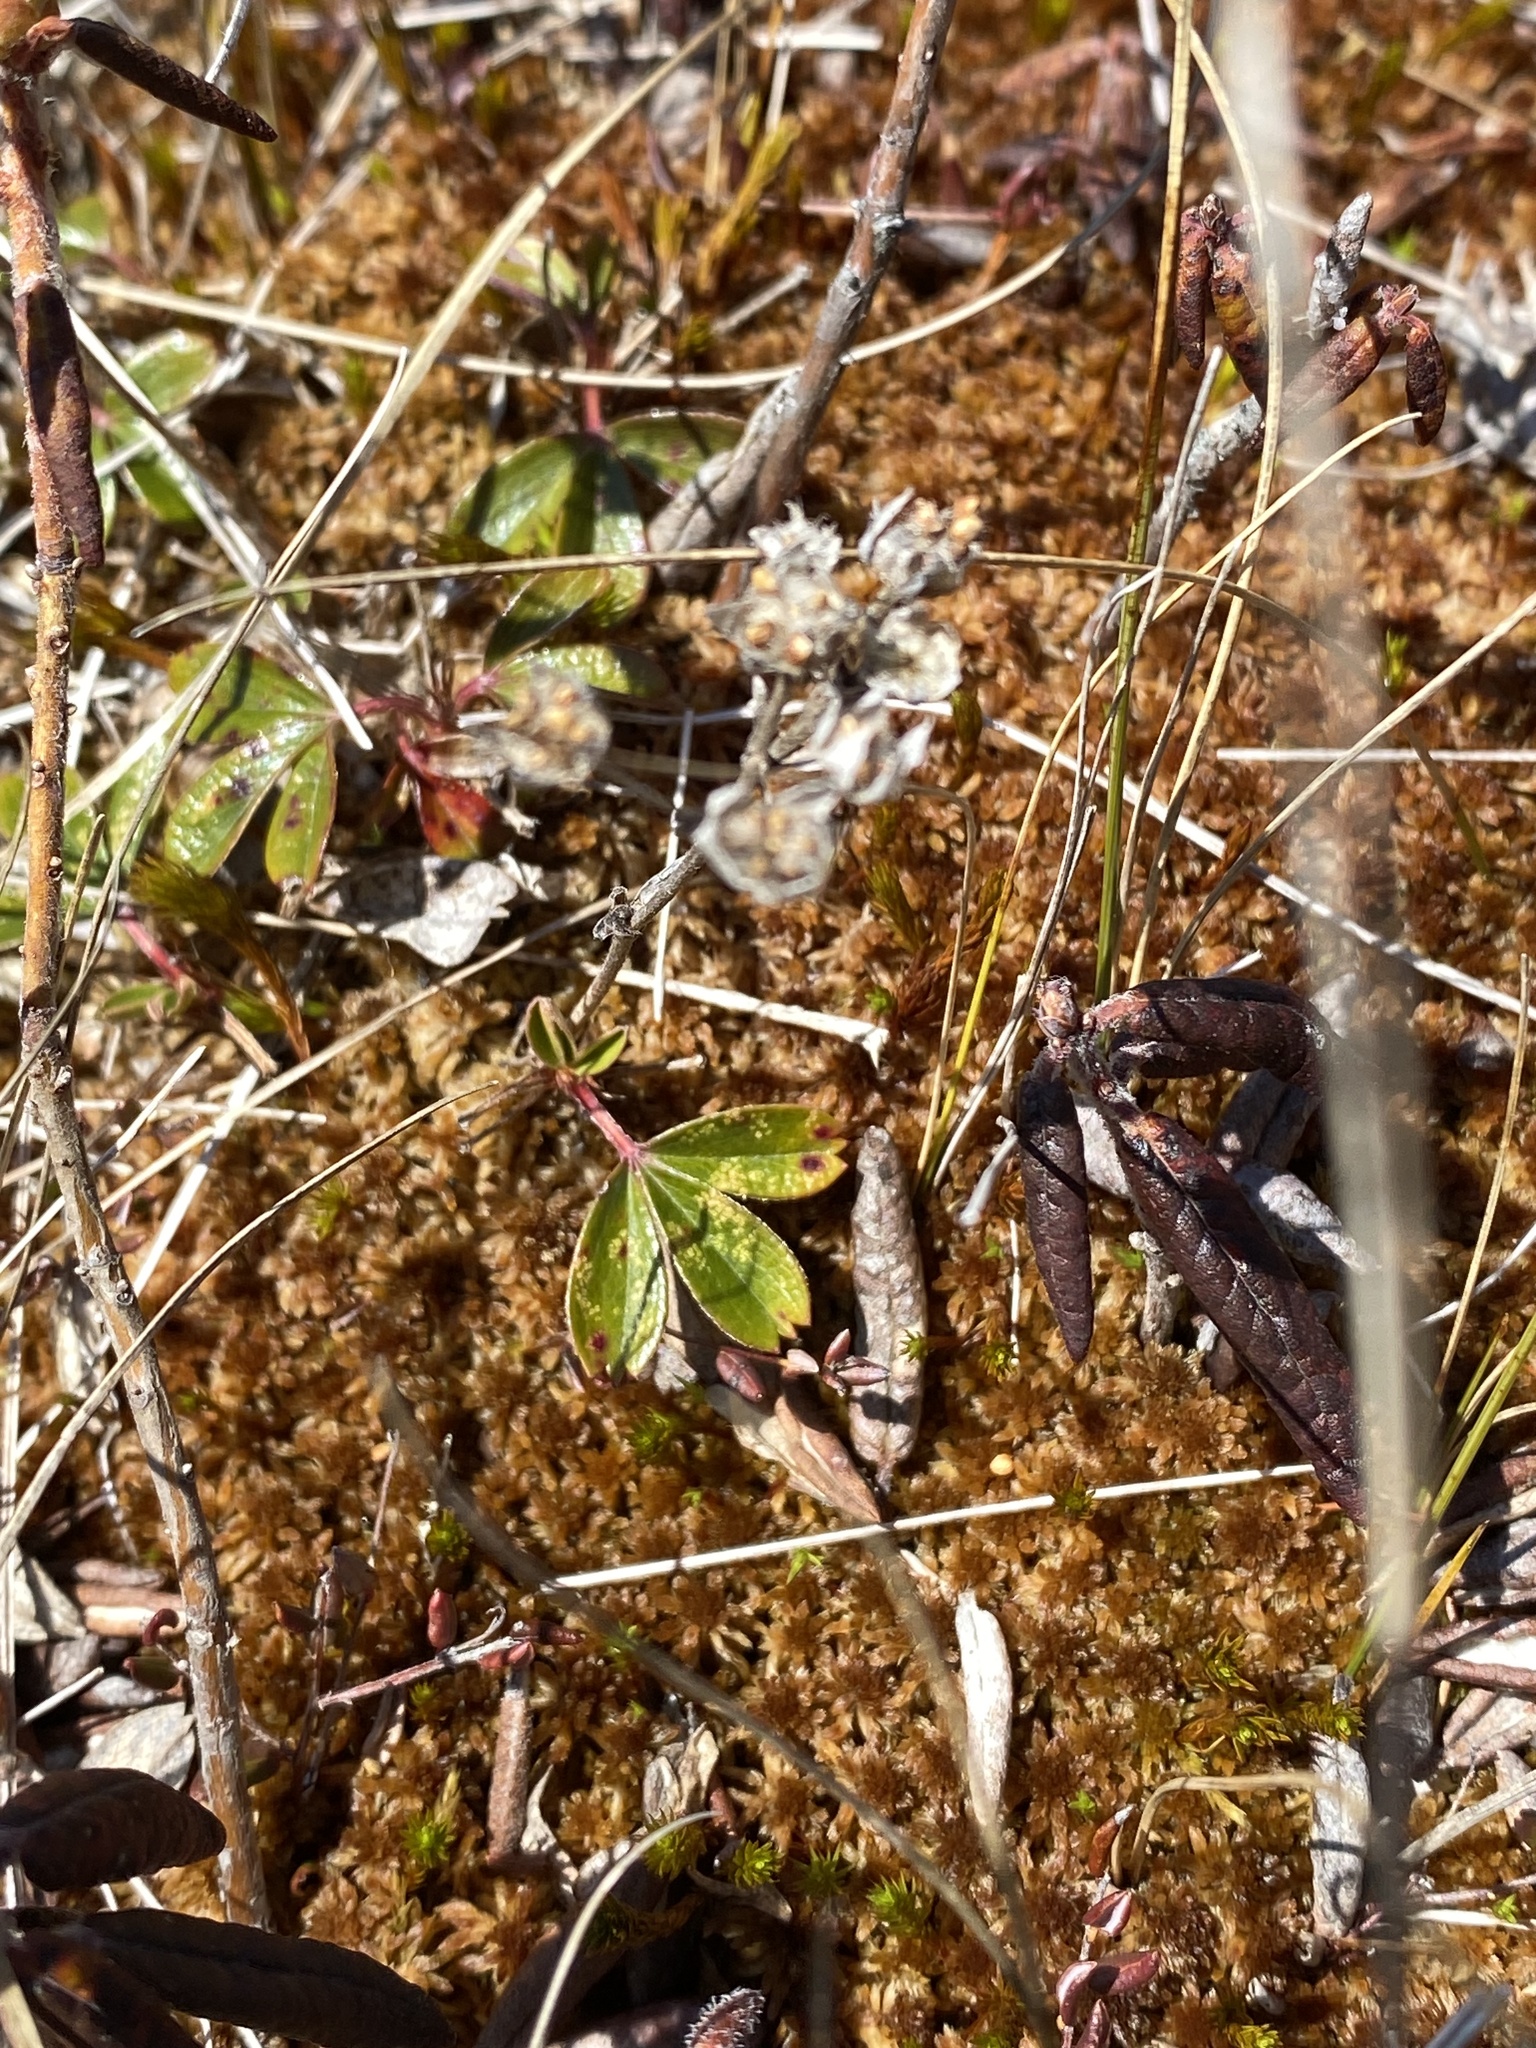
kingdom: Plantae
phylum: Tracheophyta
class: Magnoliopsida
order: Rosales
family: Rosaceae
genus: Sibbaldia
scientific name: Sibbaldia tridentata
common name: Three-toothed cinquefoil
